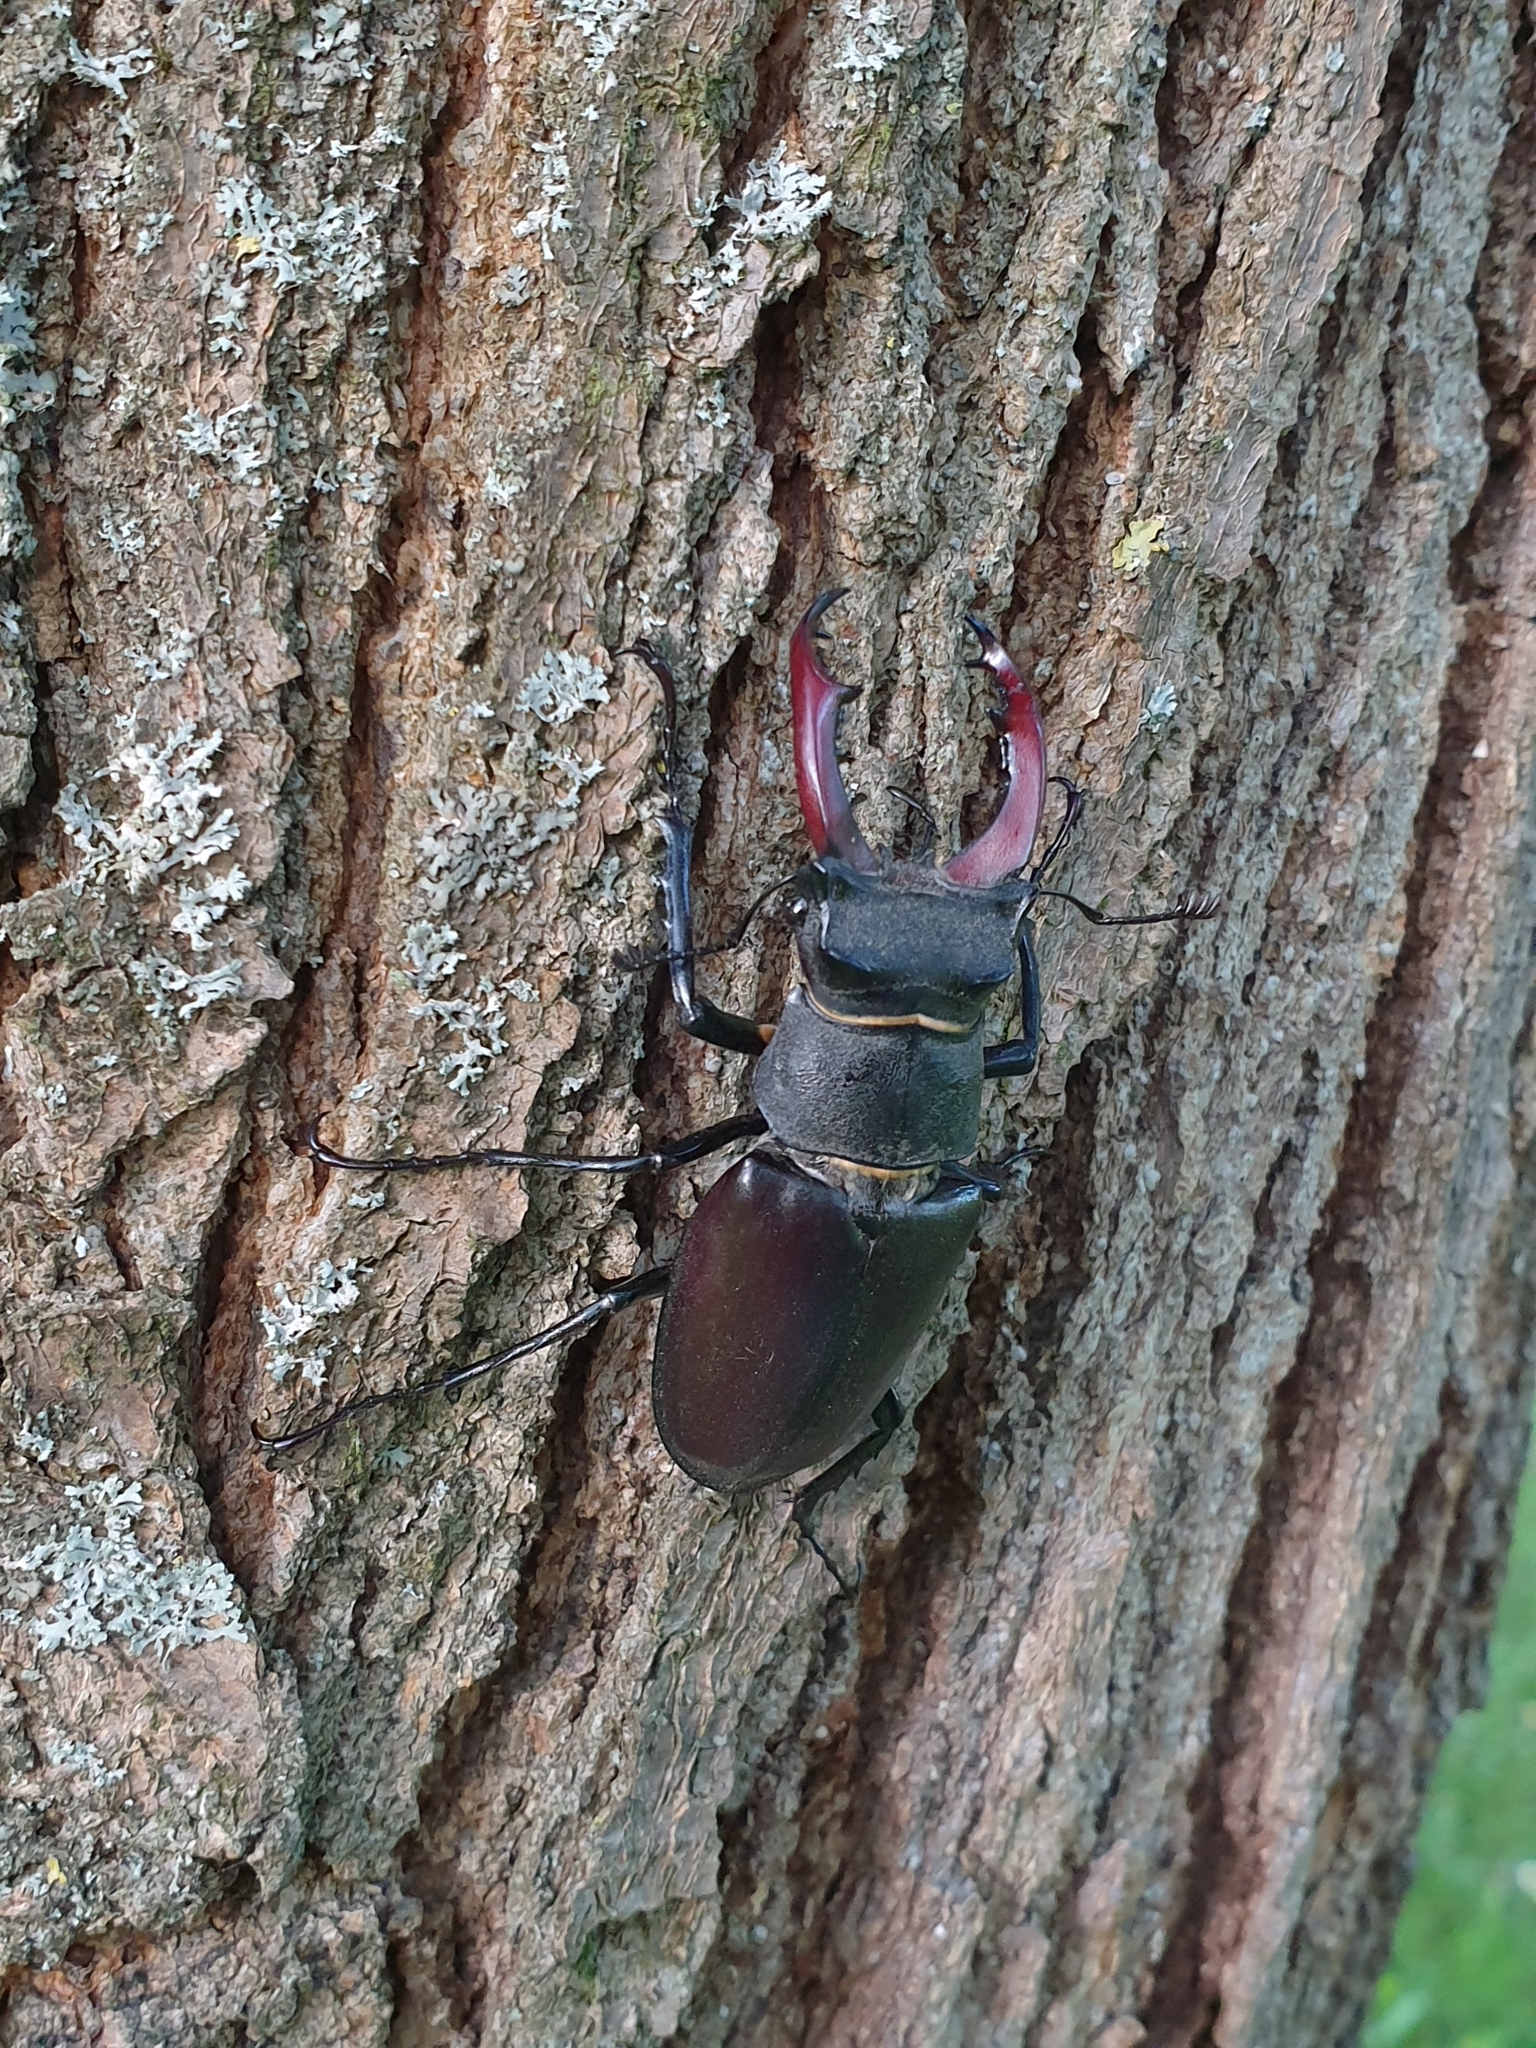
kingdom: Animalia
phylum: Arthropoda
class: Insecta
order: Coleoptera
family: Lucanidae
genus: Lucanus
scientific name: Lucanus cervus
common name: Stag beetle
